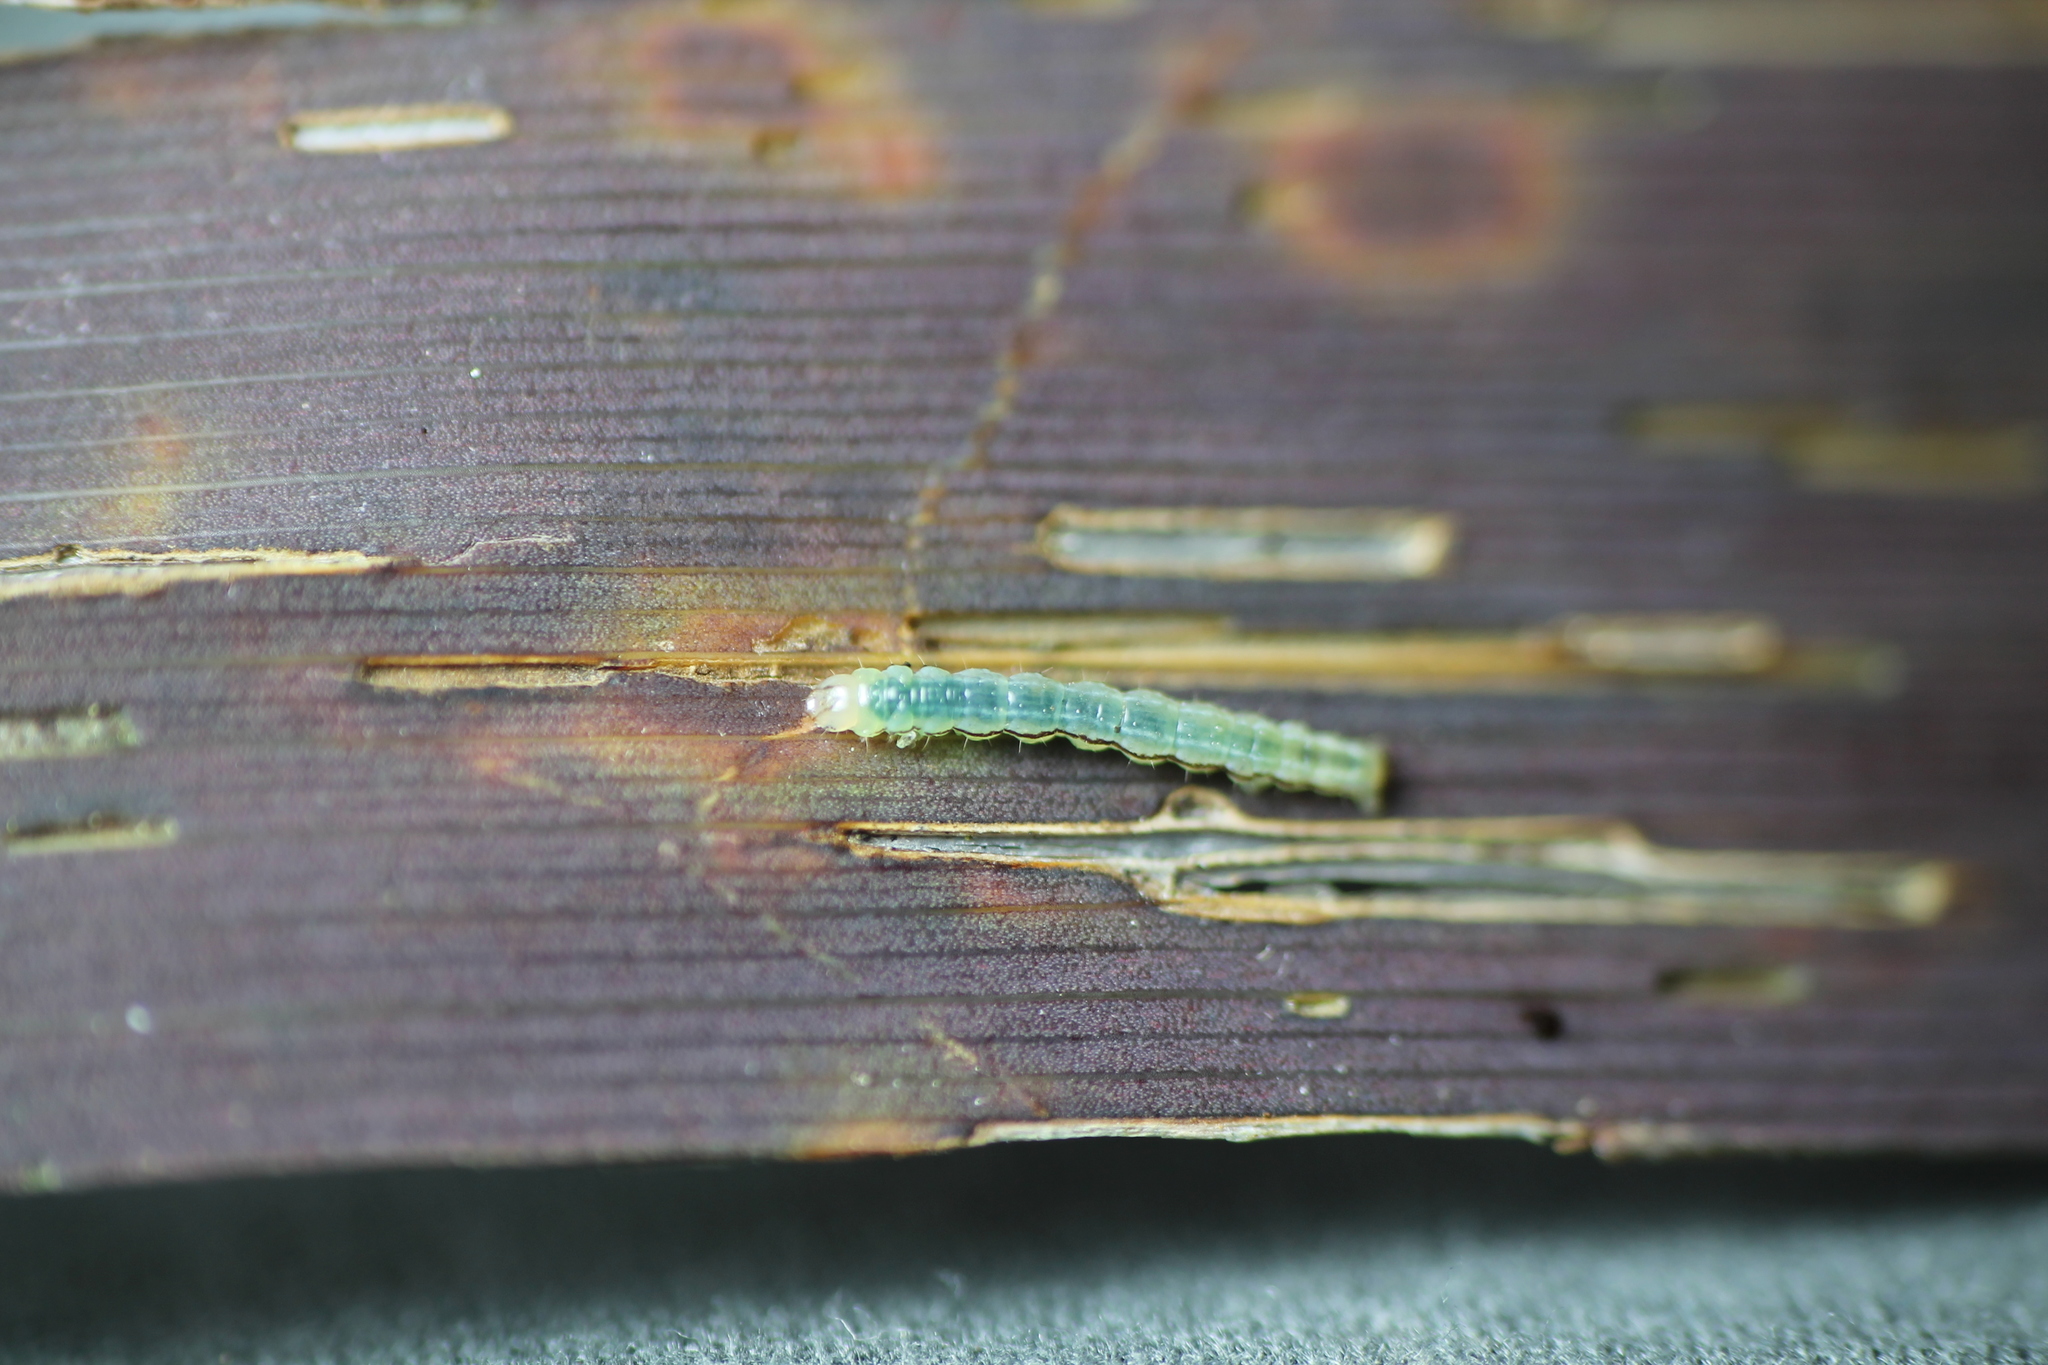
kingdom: Animalia
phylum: Arthropoda
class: Insecta
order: Lepidoptera
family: Geometridae
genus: Epiphryne
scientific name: Epiphryne verriculata
